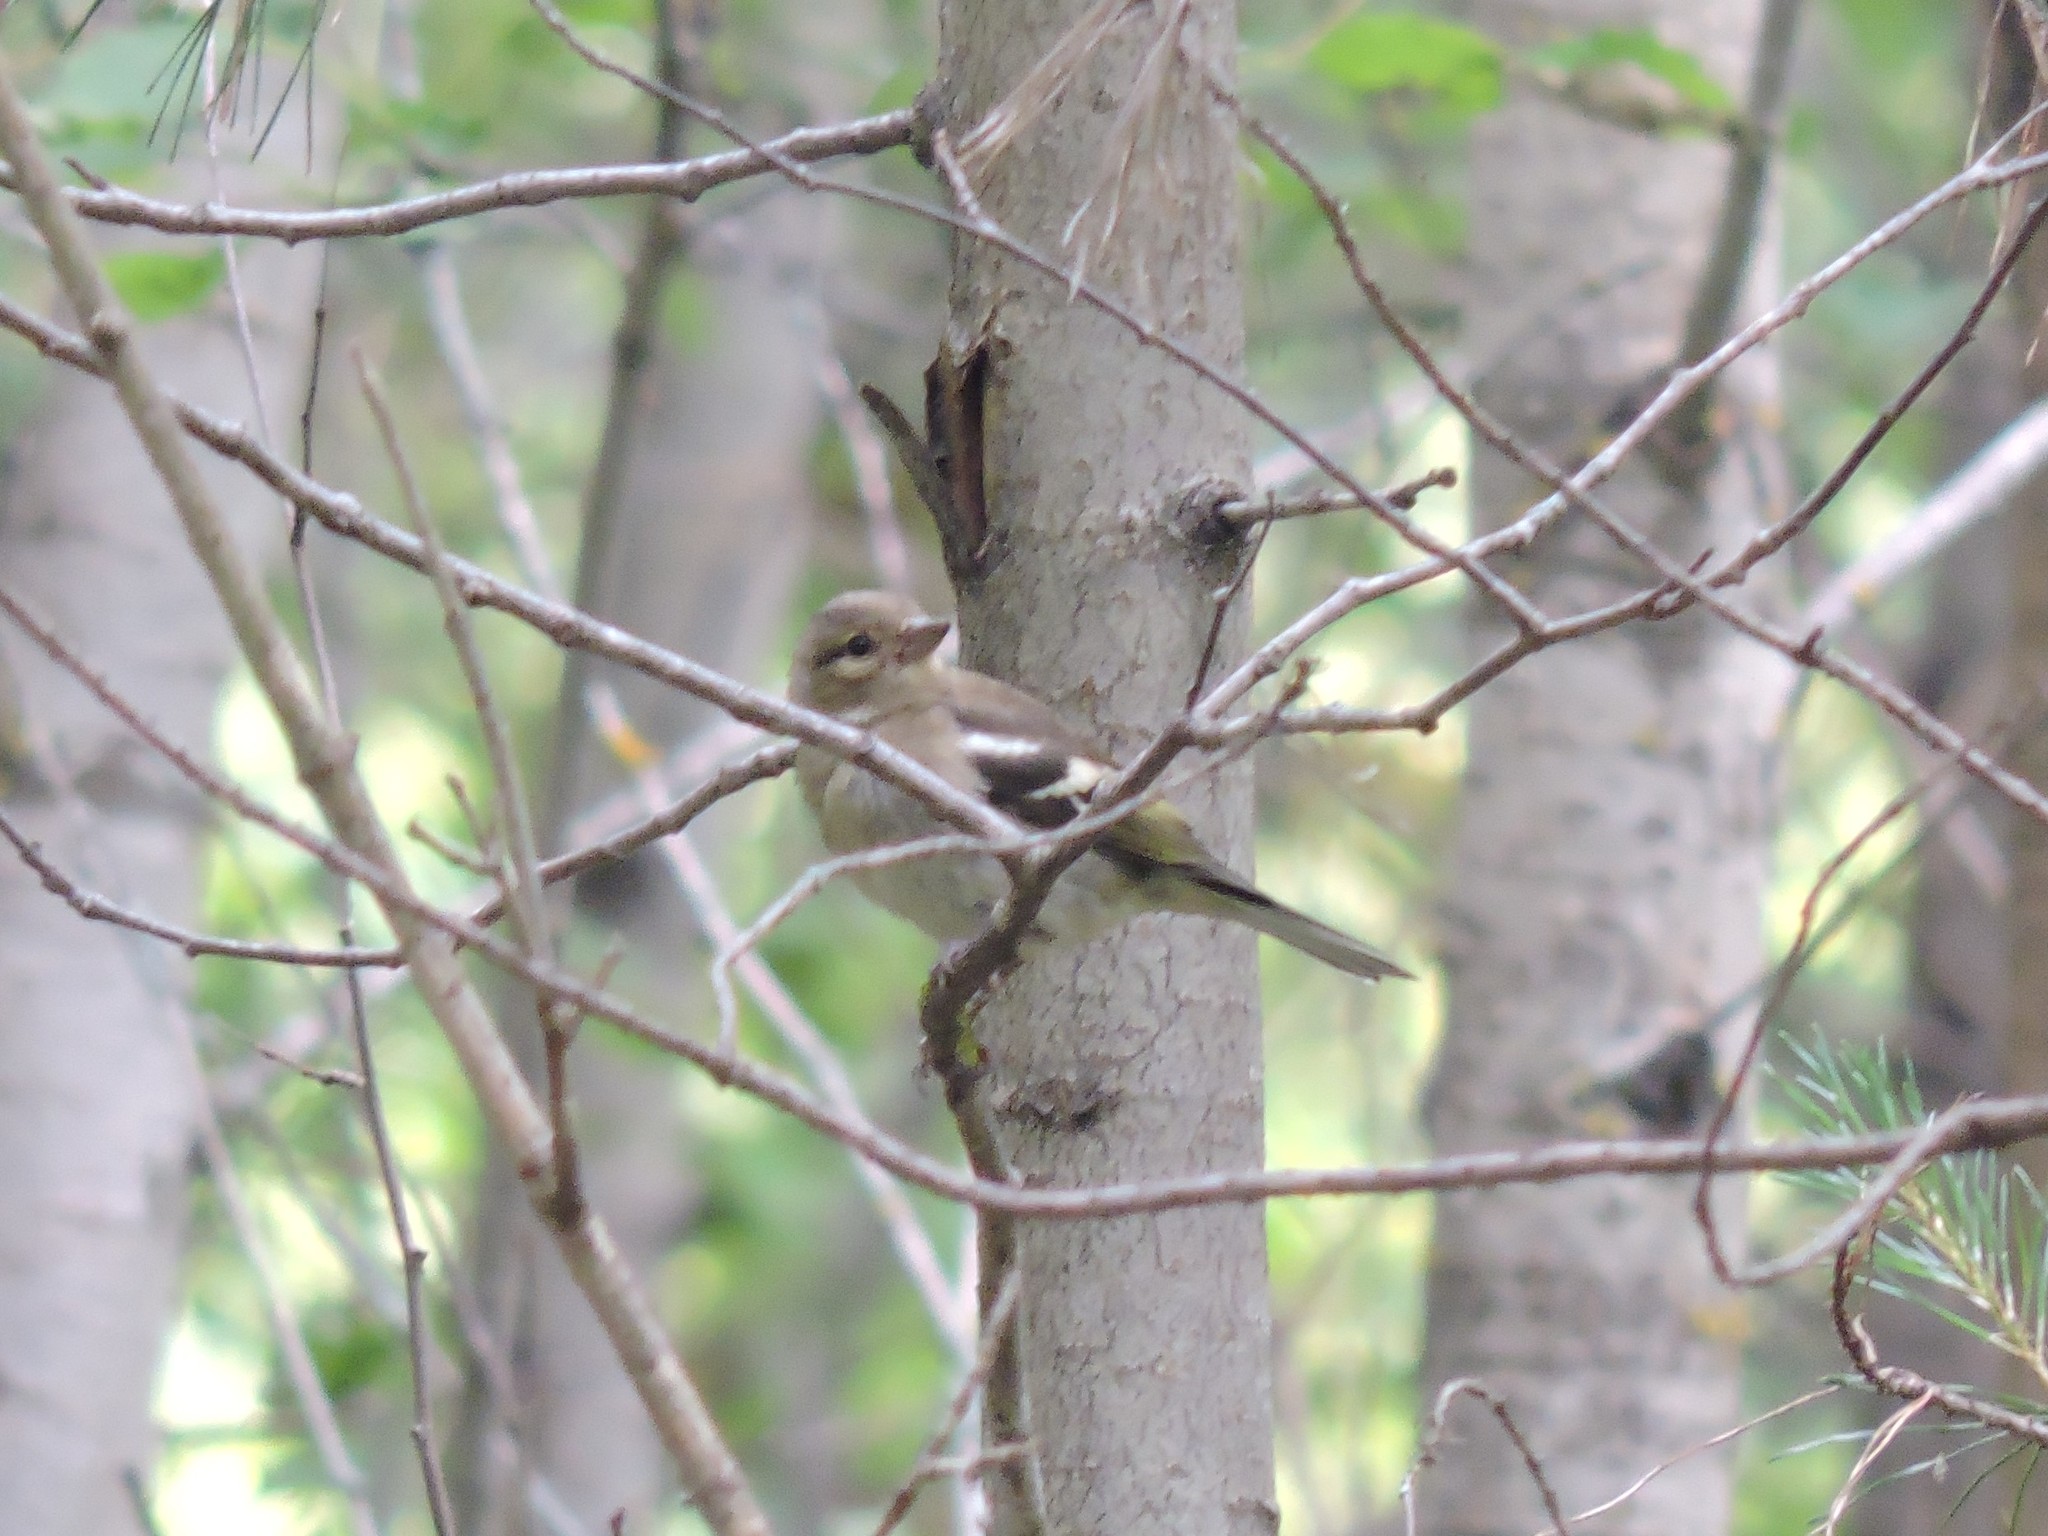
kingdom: Animalia
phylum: Chordata
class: Aves
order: Passeriformes
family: Fringillidae
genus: Fringilla
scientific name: Fringilla coelebs
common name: Common chaffinch
